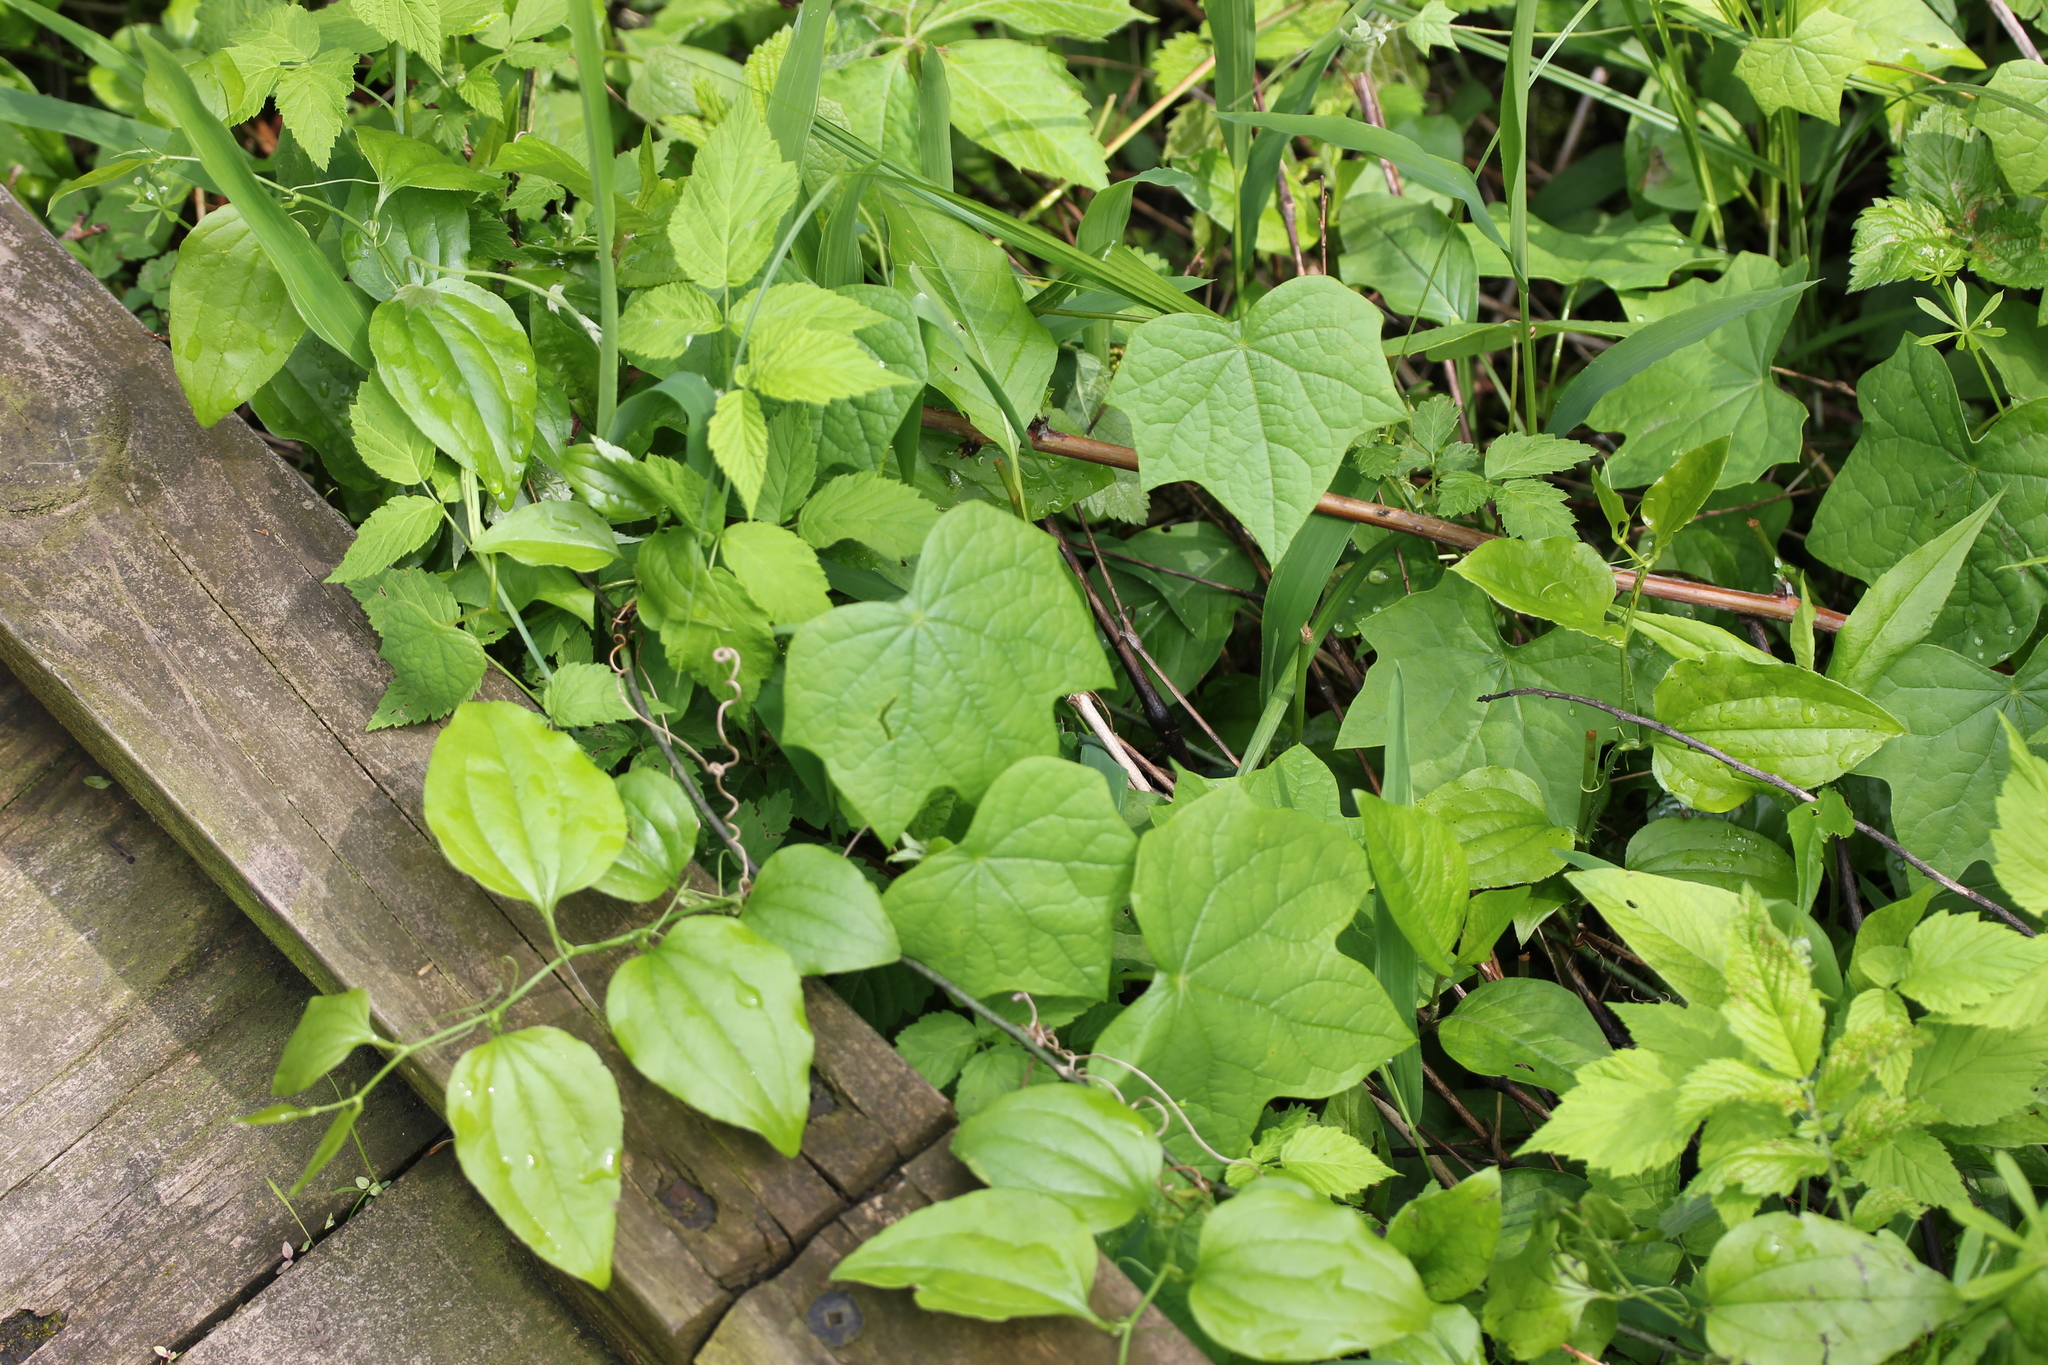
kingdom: Plantae
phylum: Tracheophyta
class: Magnoliopsida
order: Ranunculales
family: Menispermaceae
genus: Menispermum
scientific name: Menispermum canadense
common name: Moonseed
